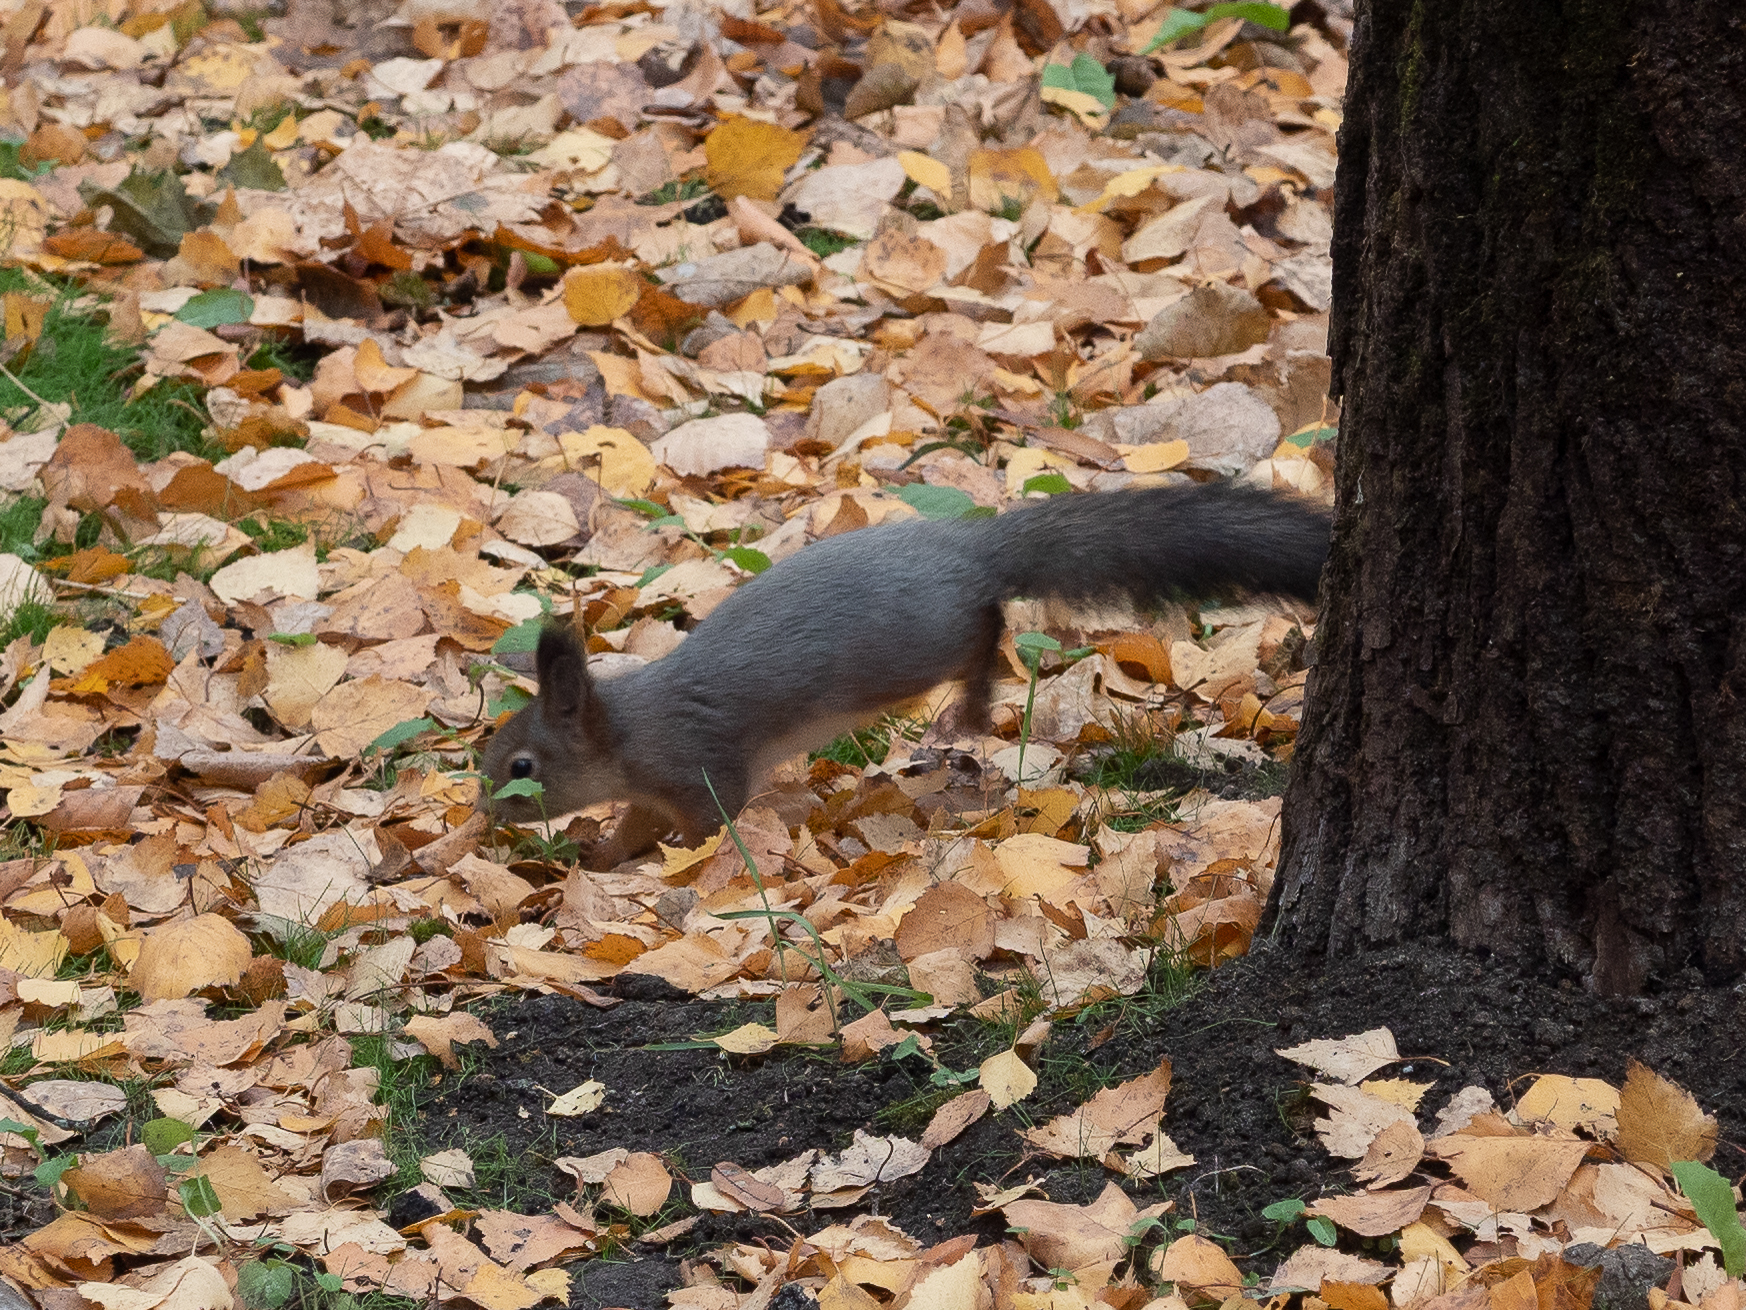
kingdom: Animalia
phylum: Chordata
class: Mammalia
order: Rodentia
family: Sciuridae
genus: Sciurus
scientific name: Sciurus vulgaris
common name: Eurasian red squirrel
